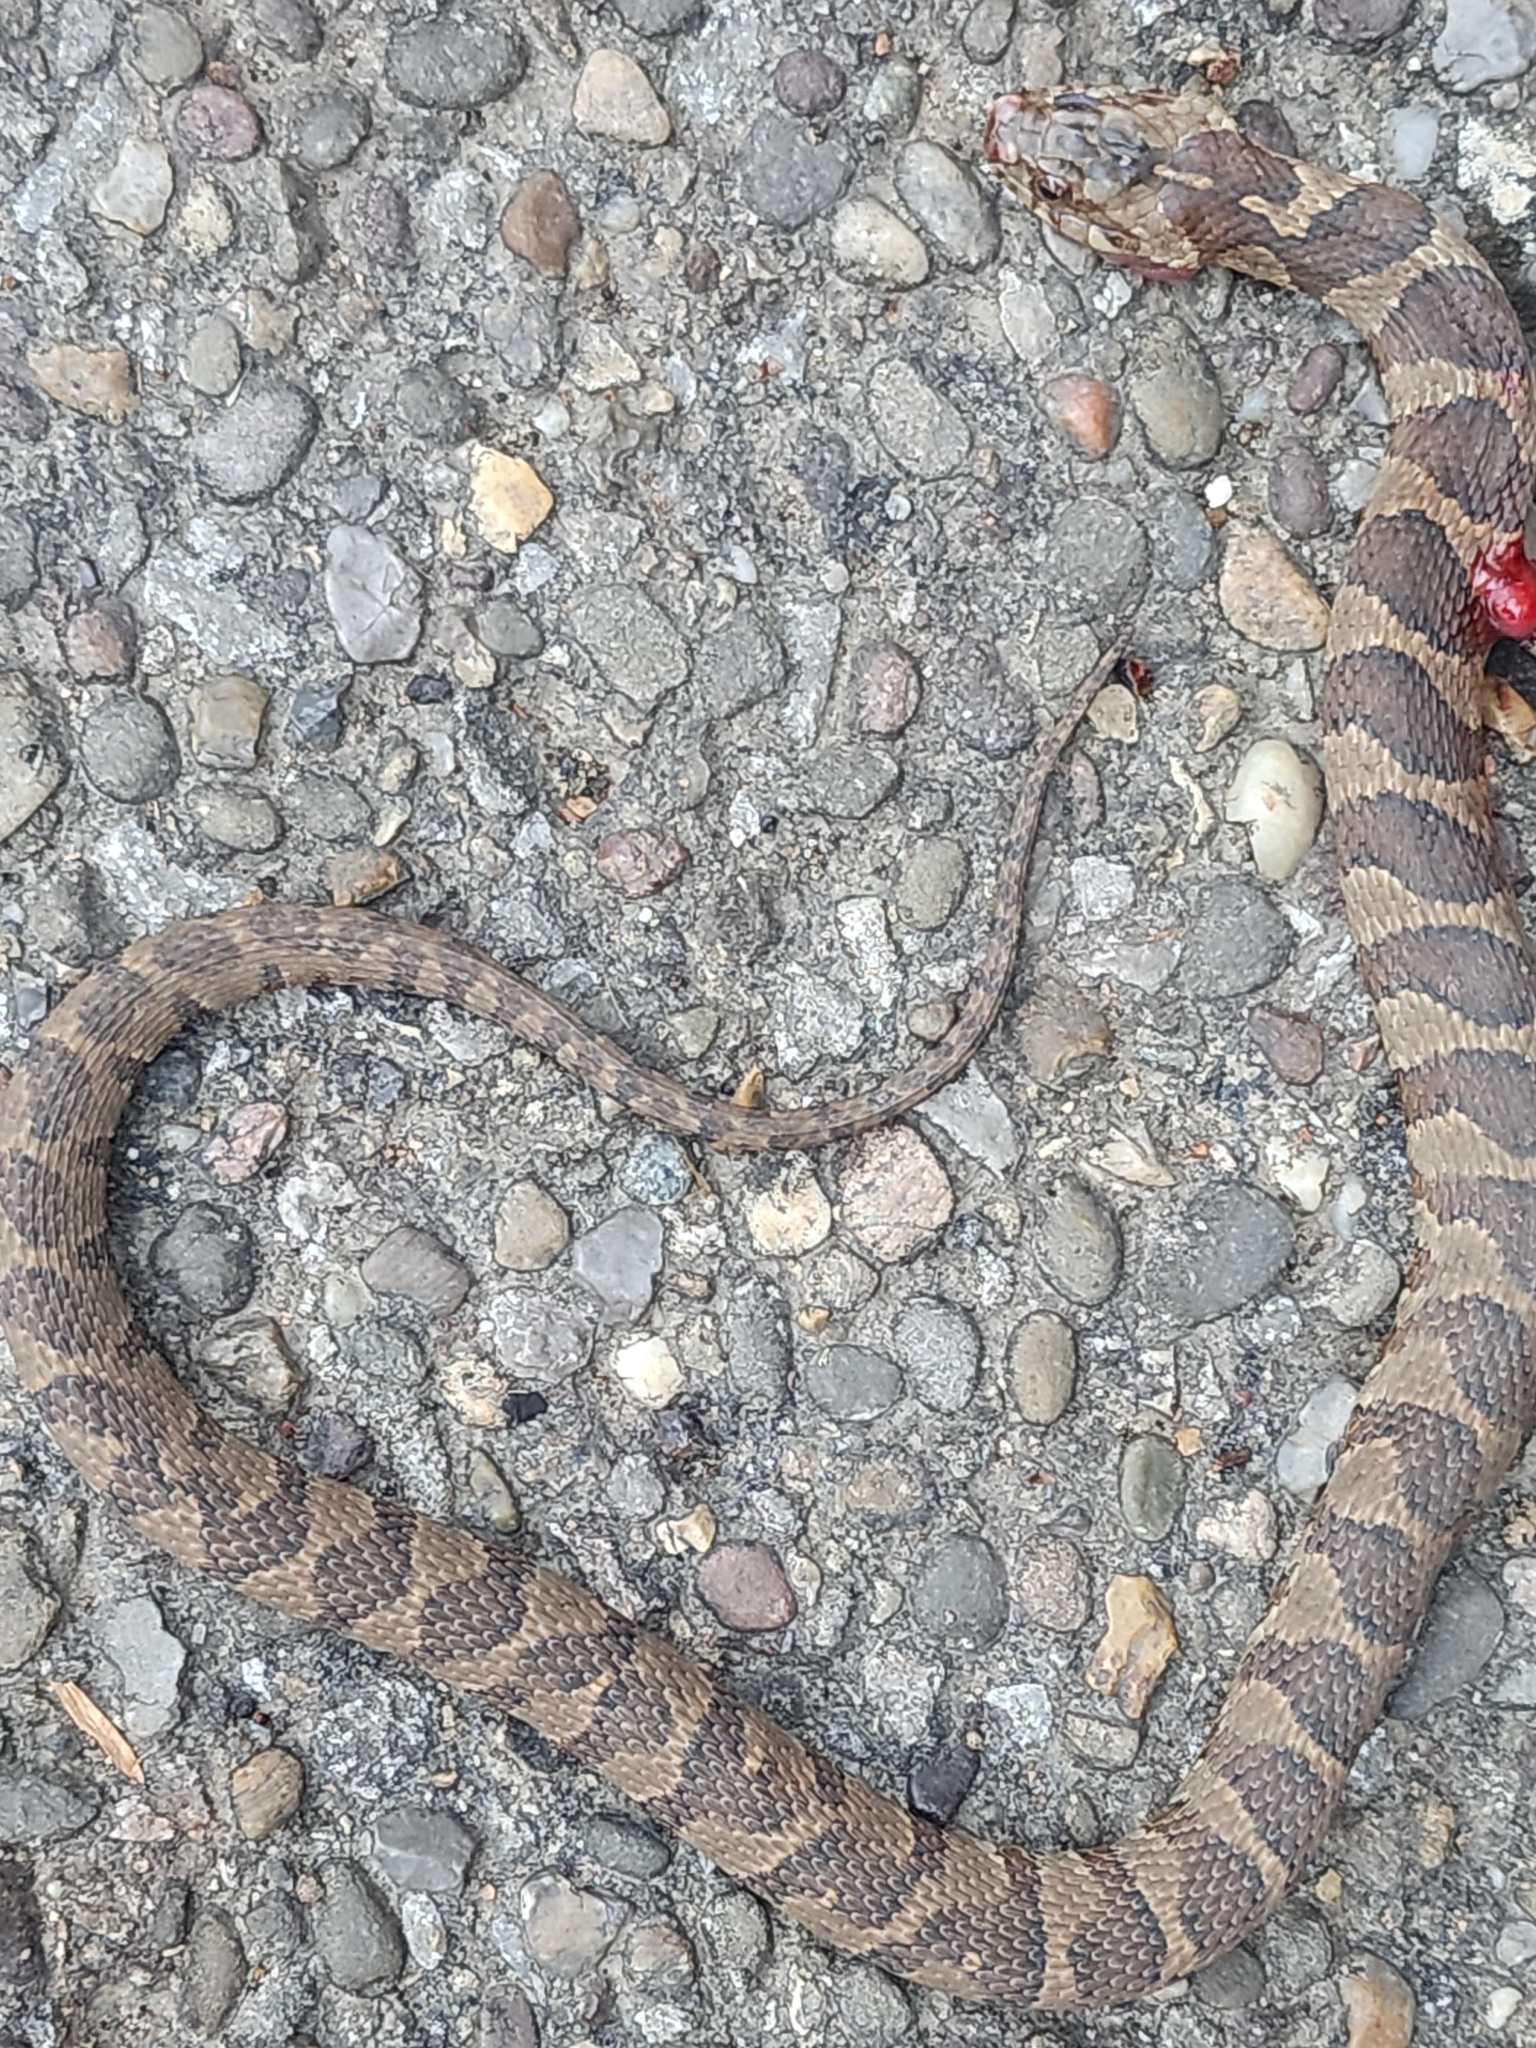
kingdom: Animalia
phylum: Chordata
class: Squamata
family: Colubridae
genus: Nerodia
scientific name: Nerodia sipedon
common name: Northern water snake
